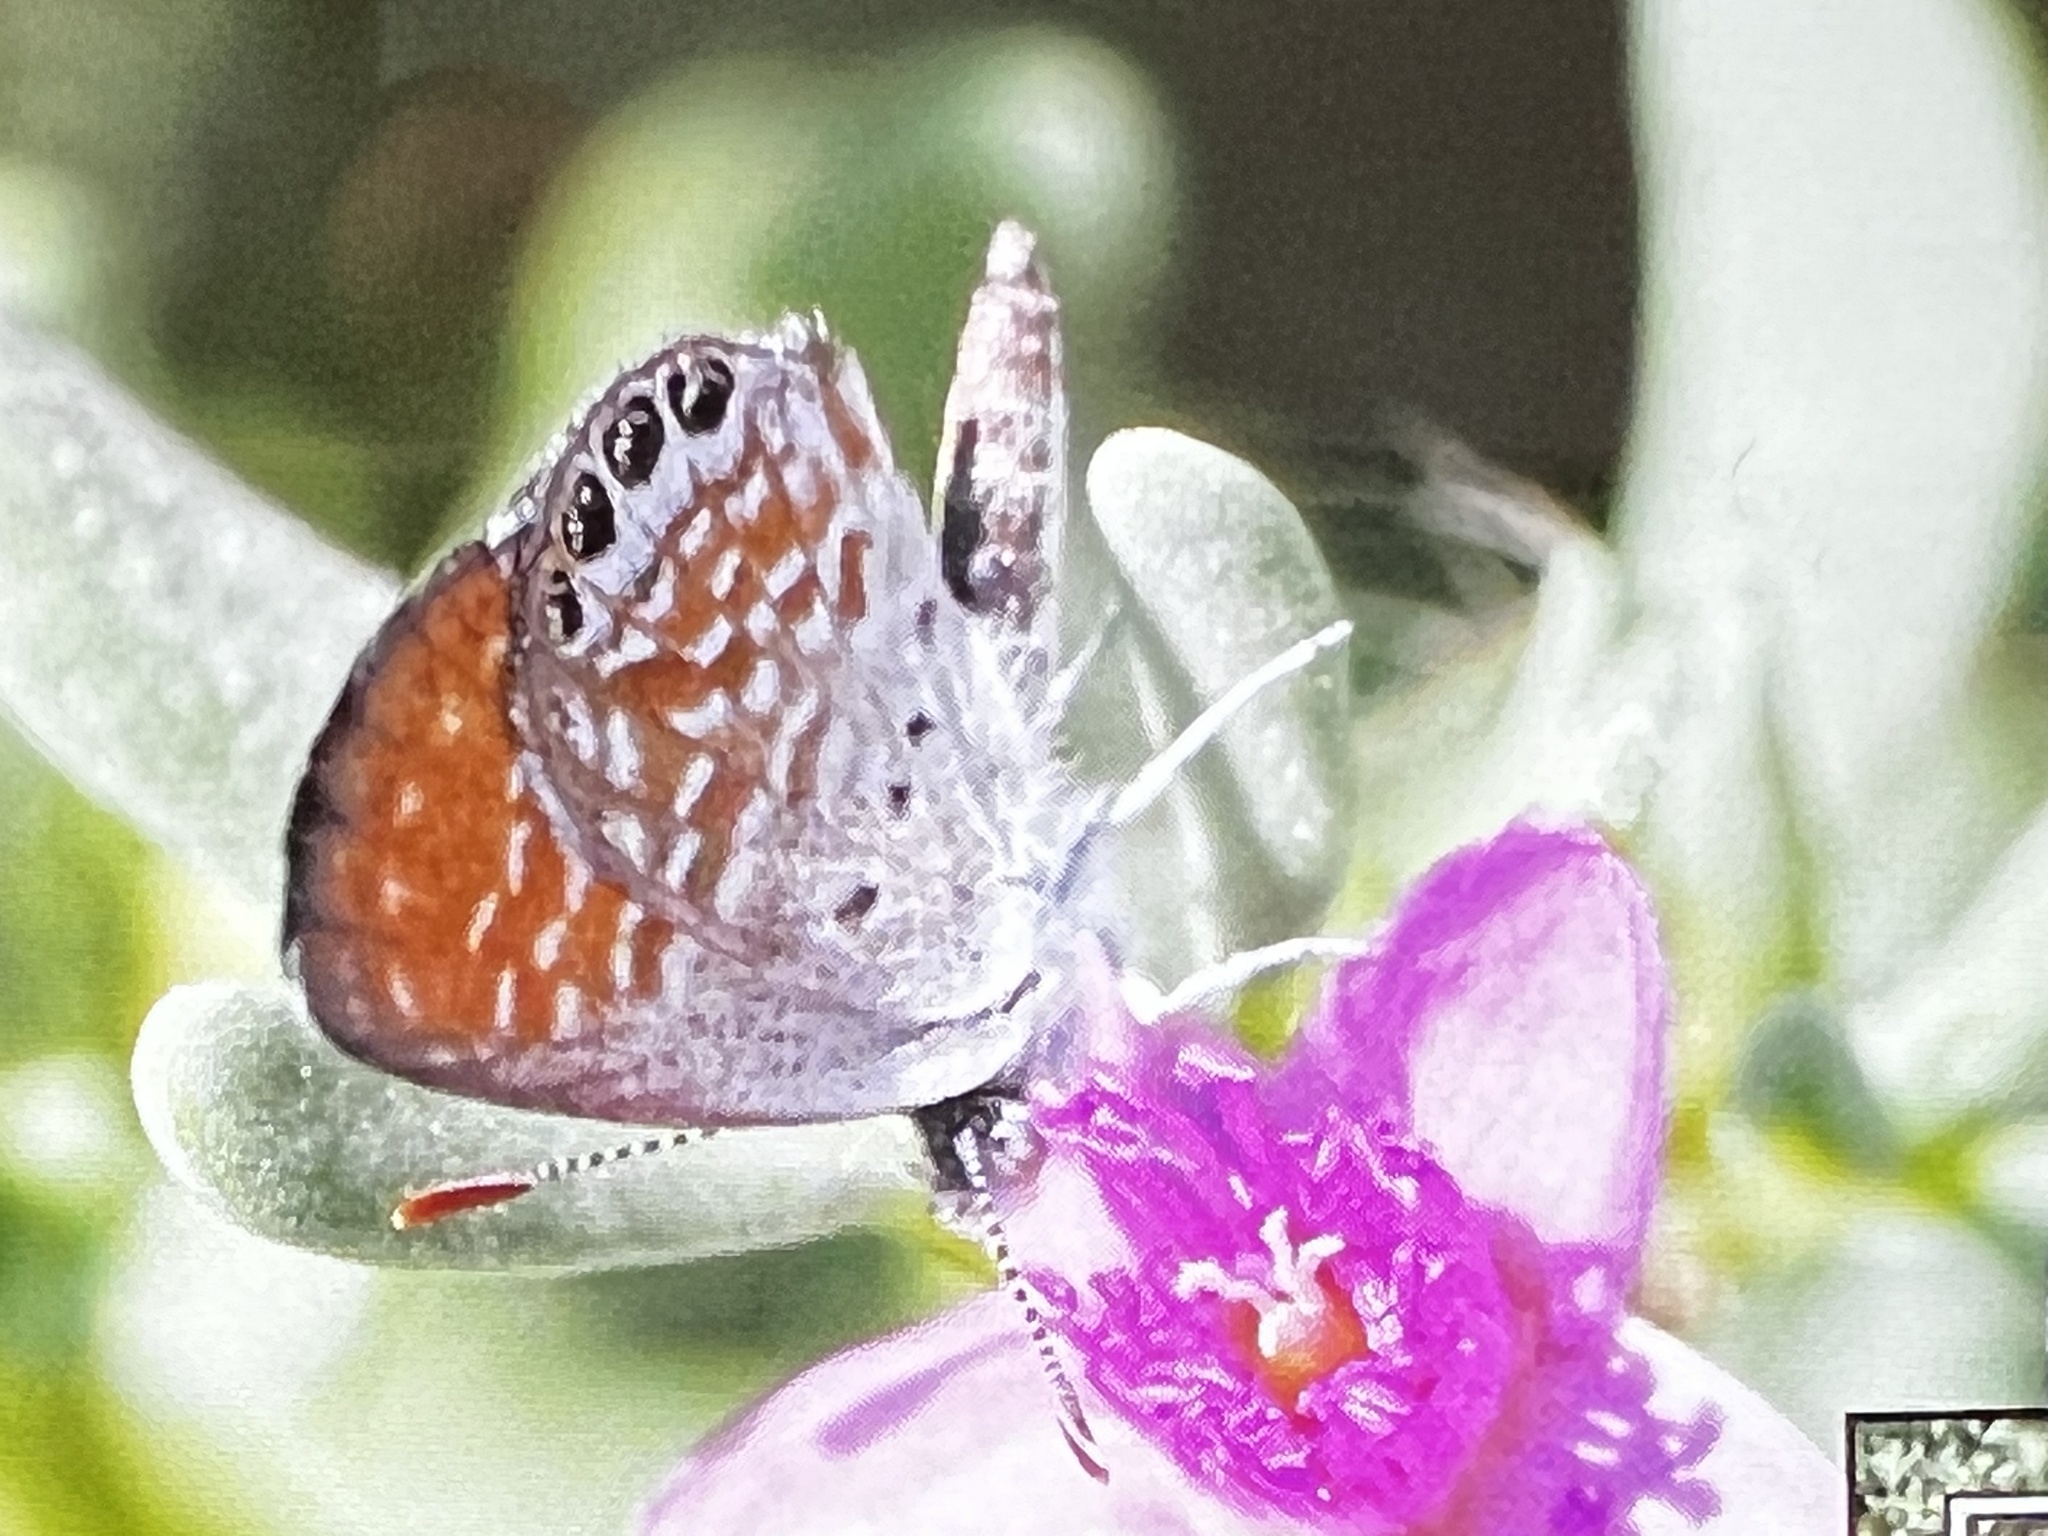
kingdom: Animalia
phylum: Arthropoda
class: Insecta
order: Lepidoptera
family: Lycaenidae
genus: Brephidium
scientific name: Brephidium exilis
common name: Pygmy blue
